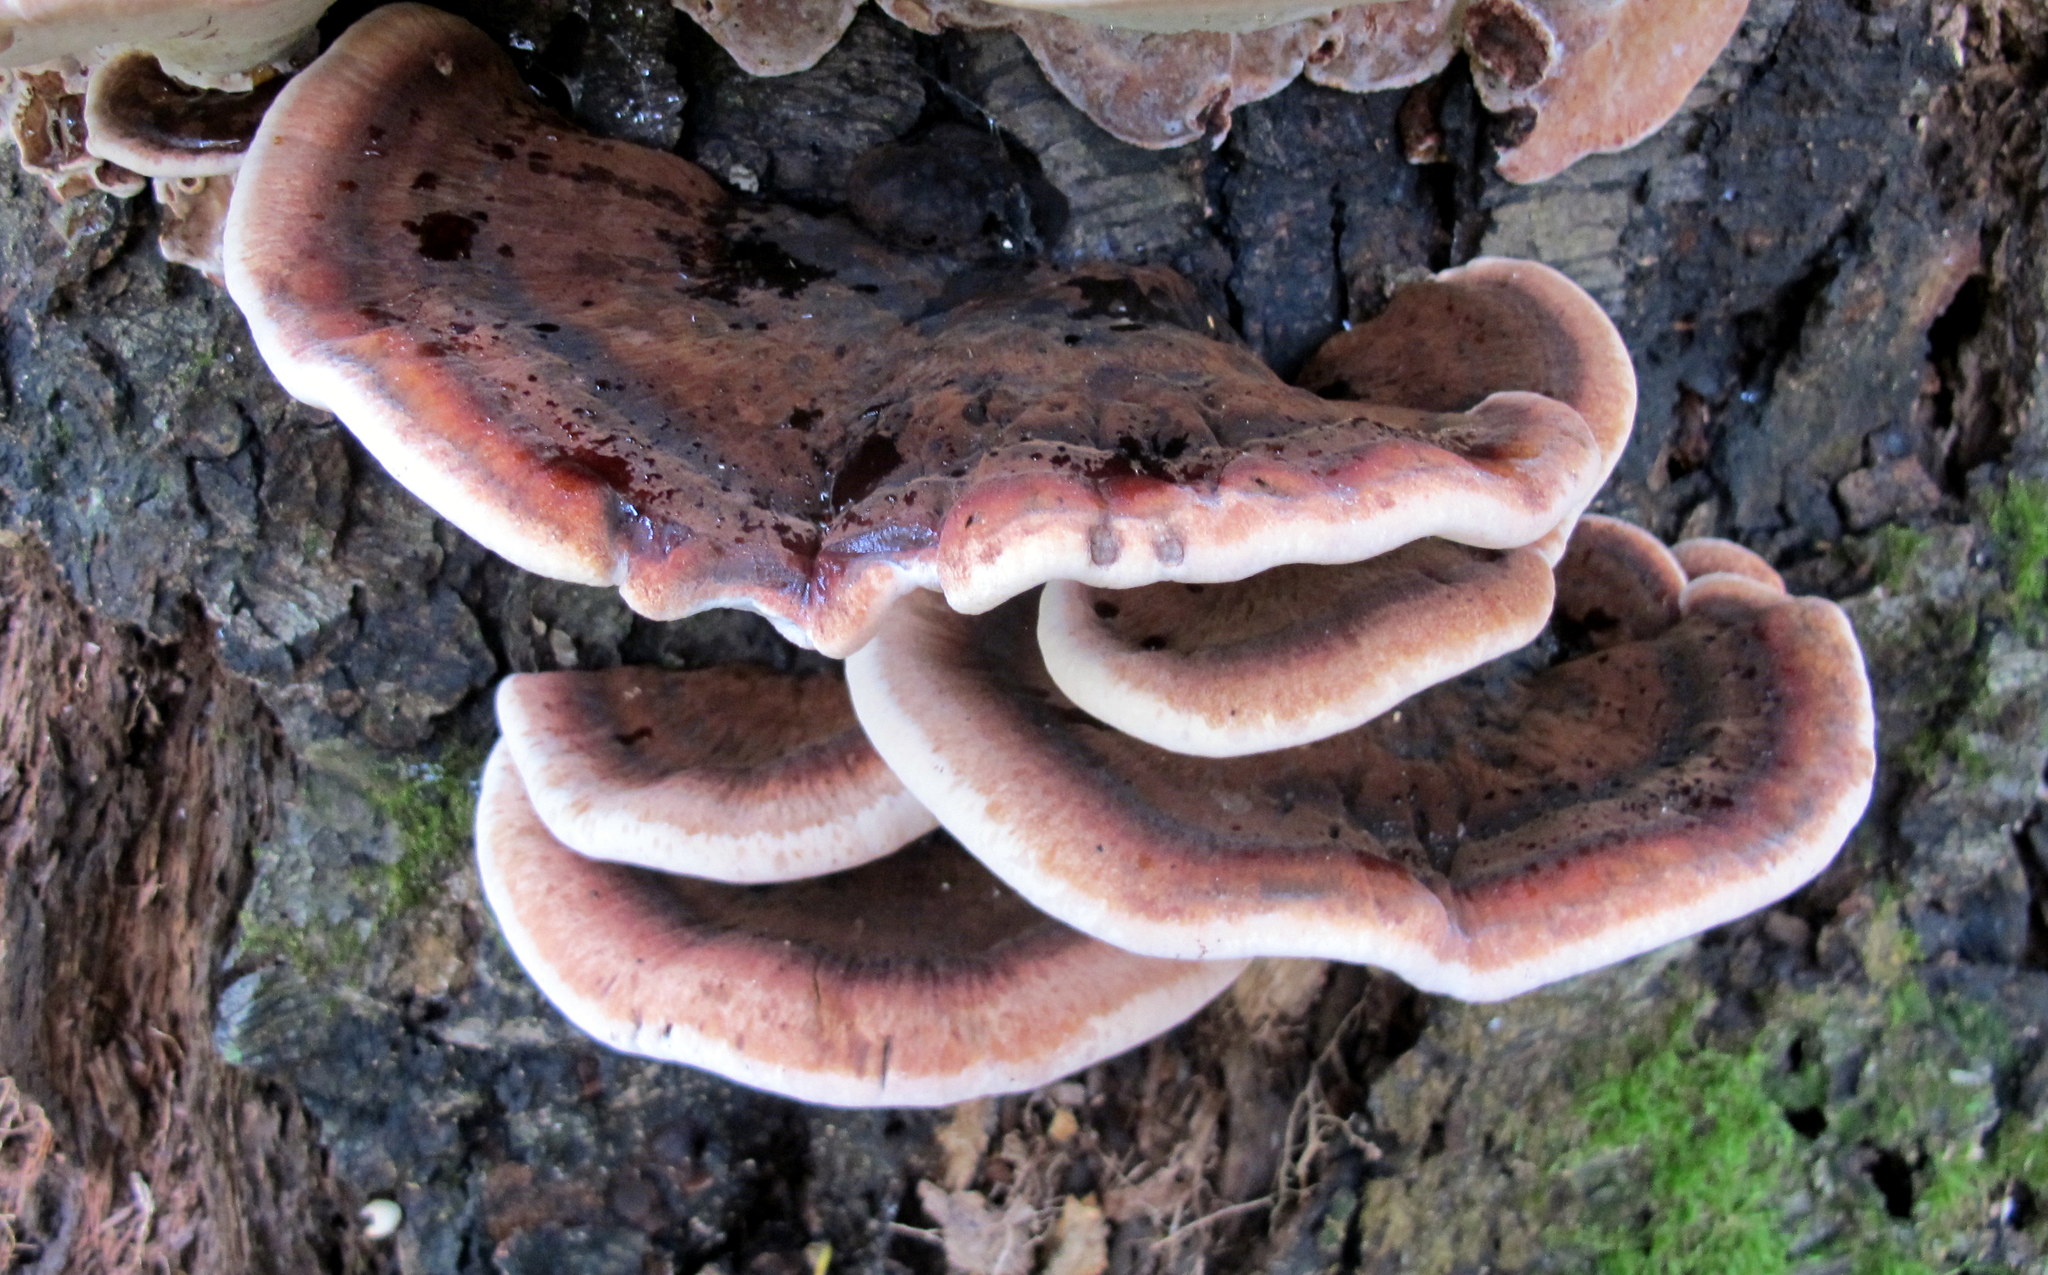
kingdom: Fungi
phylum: Basidiomycota
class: Agaricomycetes
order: Polyporales
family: Ischnodermataceae
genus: Ischnoderma
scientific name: Ischnoderma resinosum
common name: Resinous polypore
